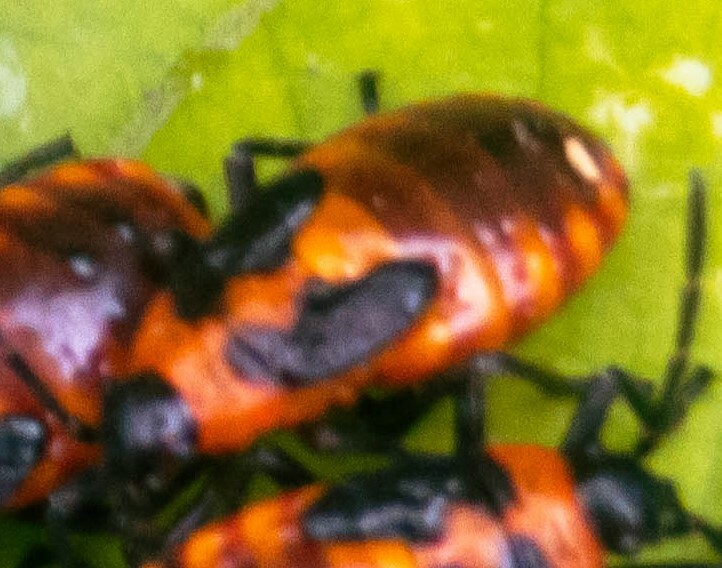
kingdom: Animalia
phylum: Arthropoda
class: Insecta
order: Hemiptera
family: Lygaeidae
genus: Tropidothorax
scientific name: Tropidothorax leucopterus
